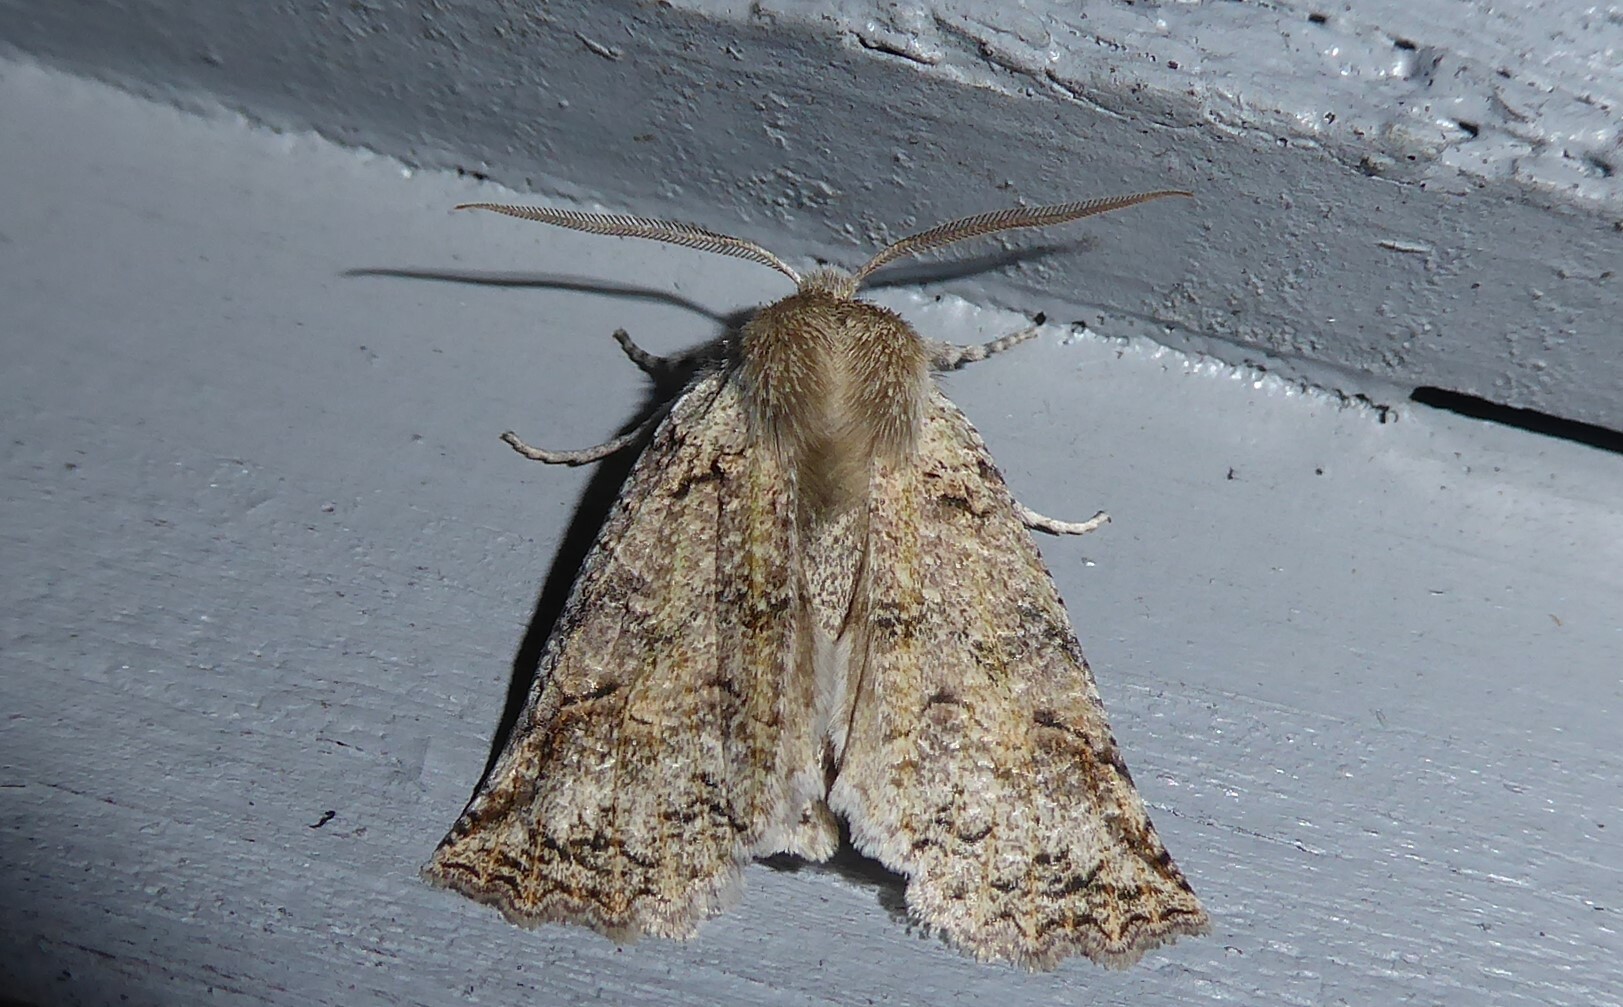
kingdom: Animalia
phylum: Arthropoda
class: Insecta
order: Lepidoptera
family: Geometridae
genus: Declana
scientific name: Declana floccosa
